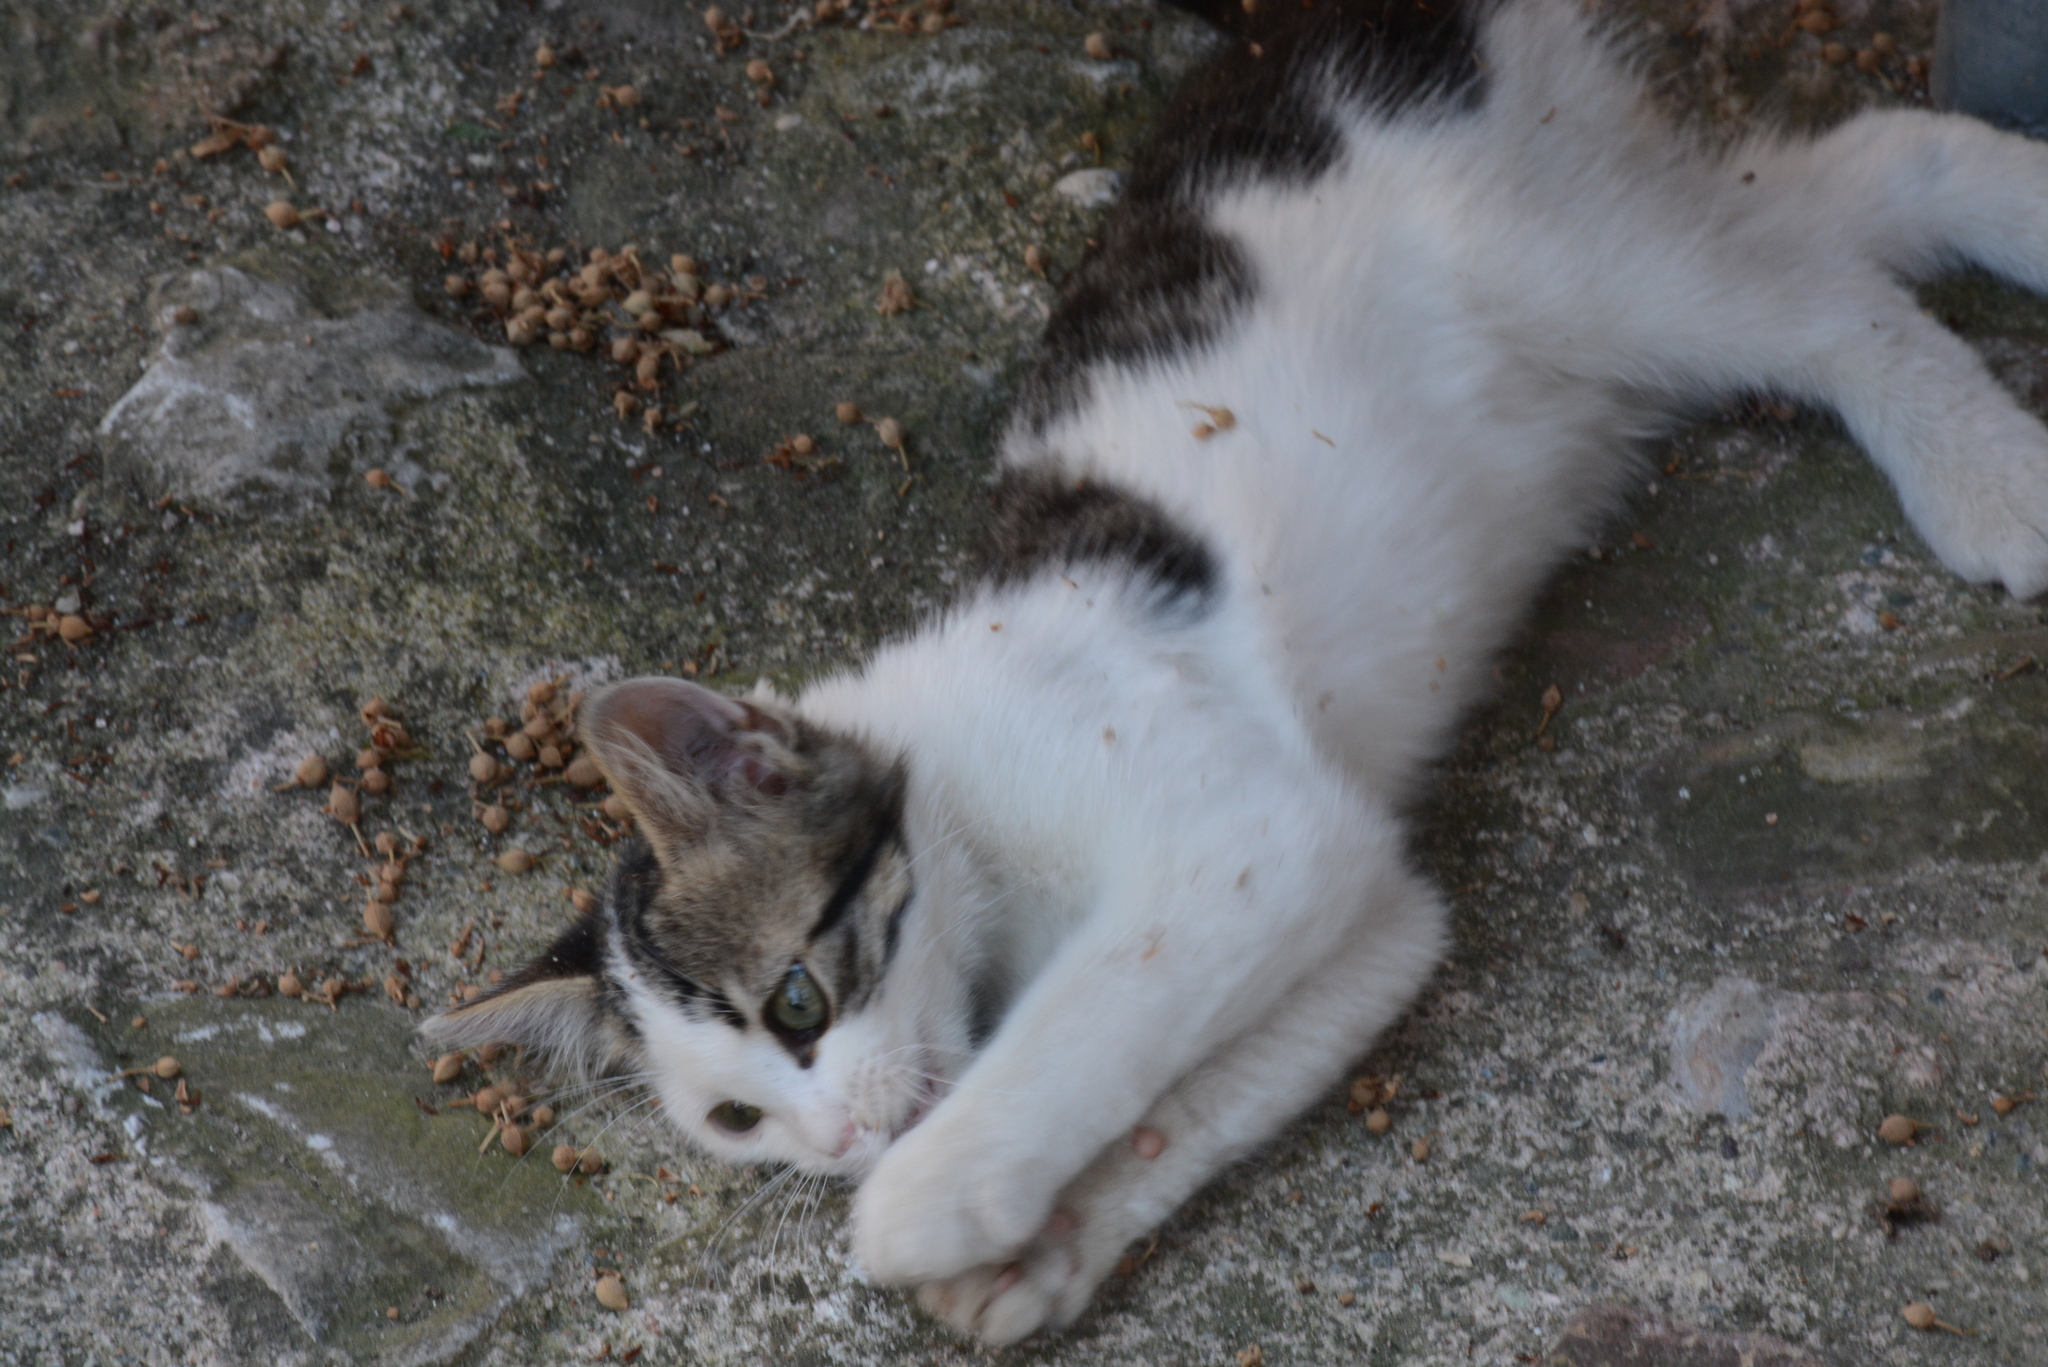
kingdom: Animalia
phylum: Chordata
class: Mammalia
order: Carnivora
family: Felidae
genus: Felis
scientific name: Felis catus
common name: Domestic cat
